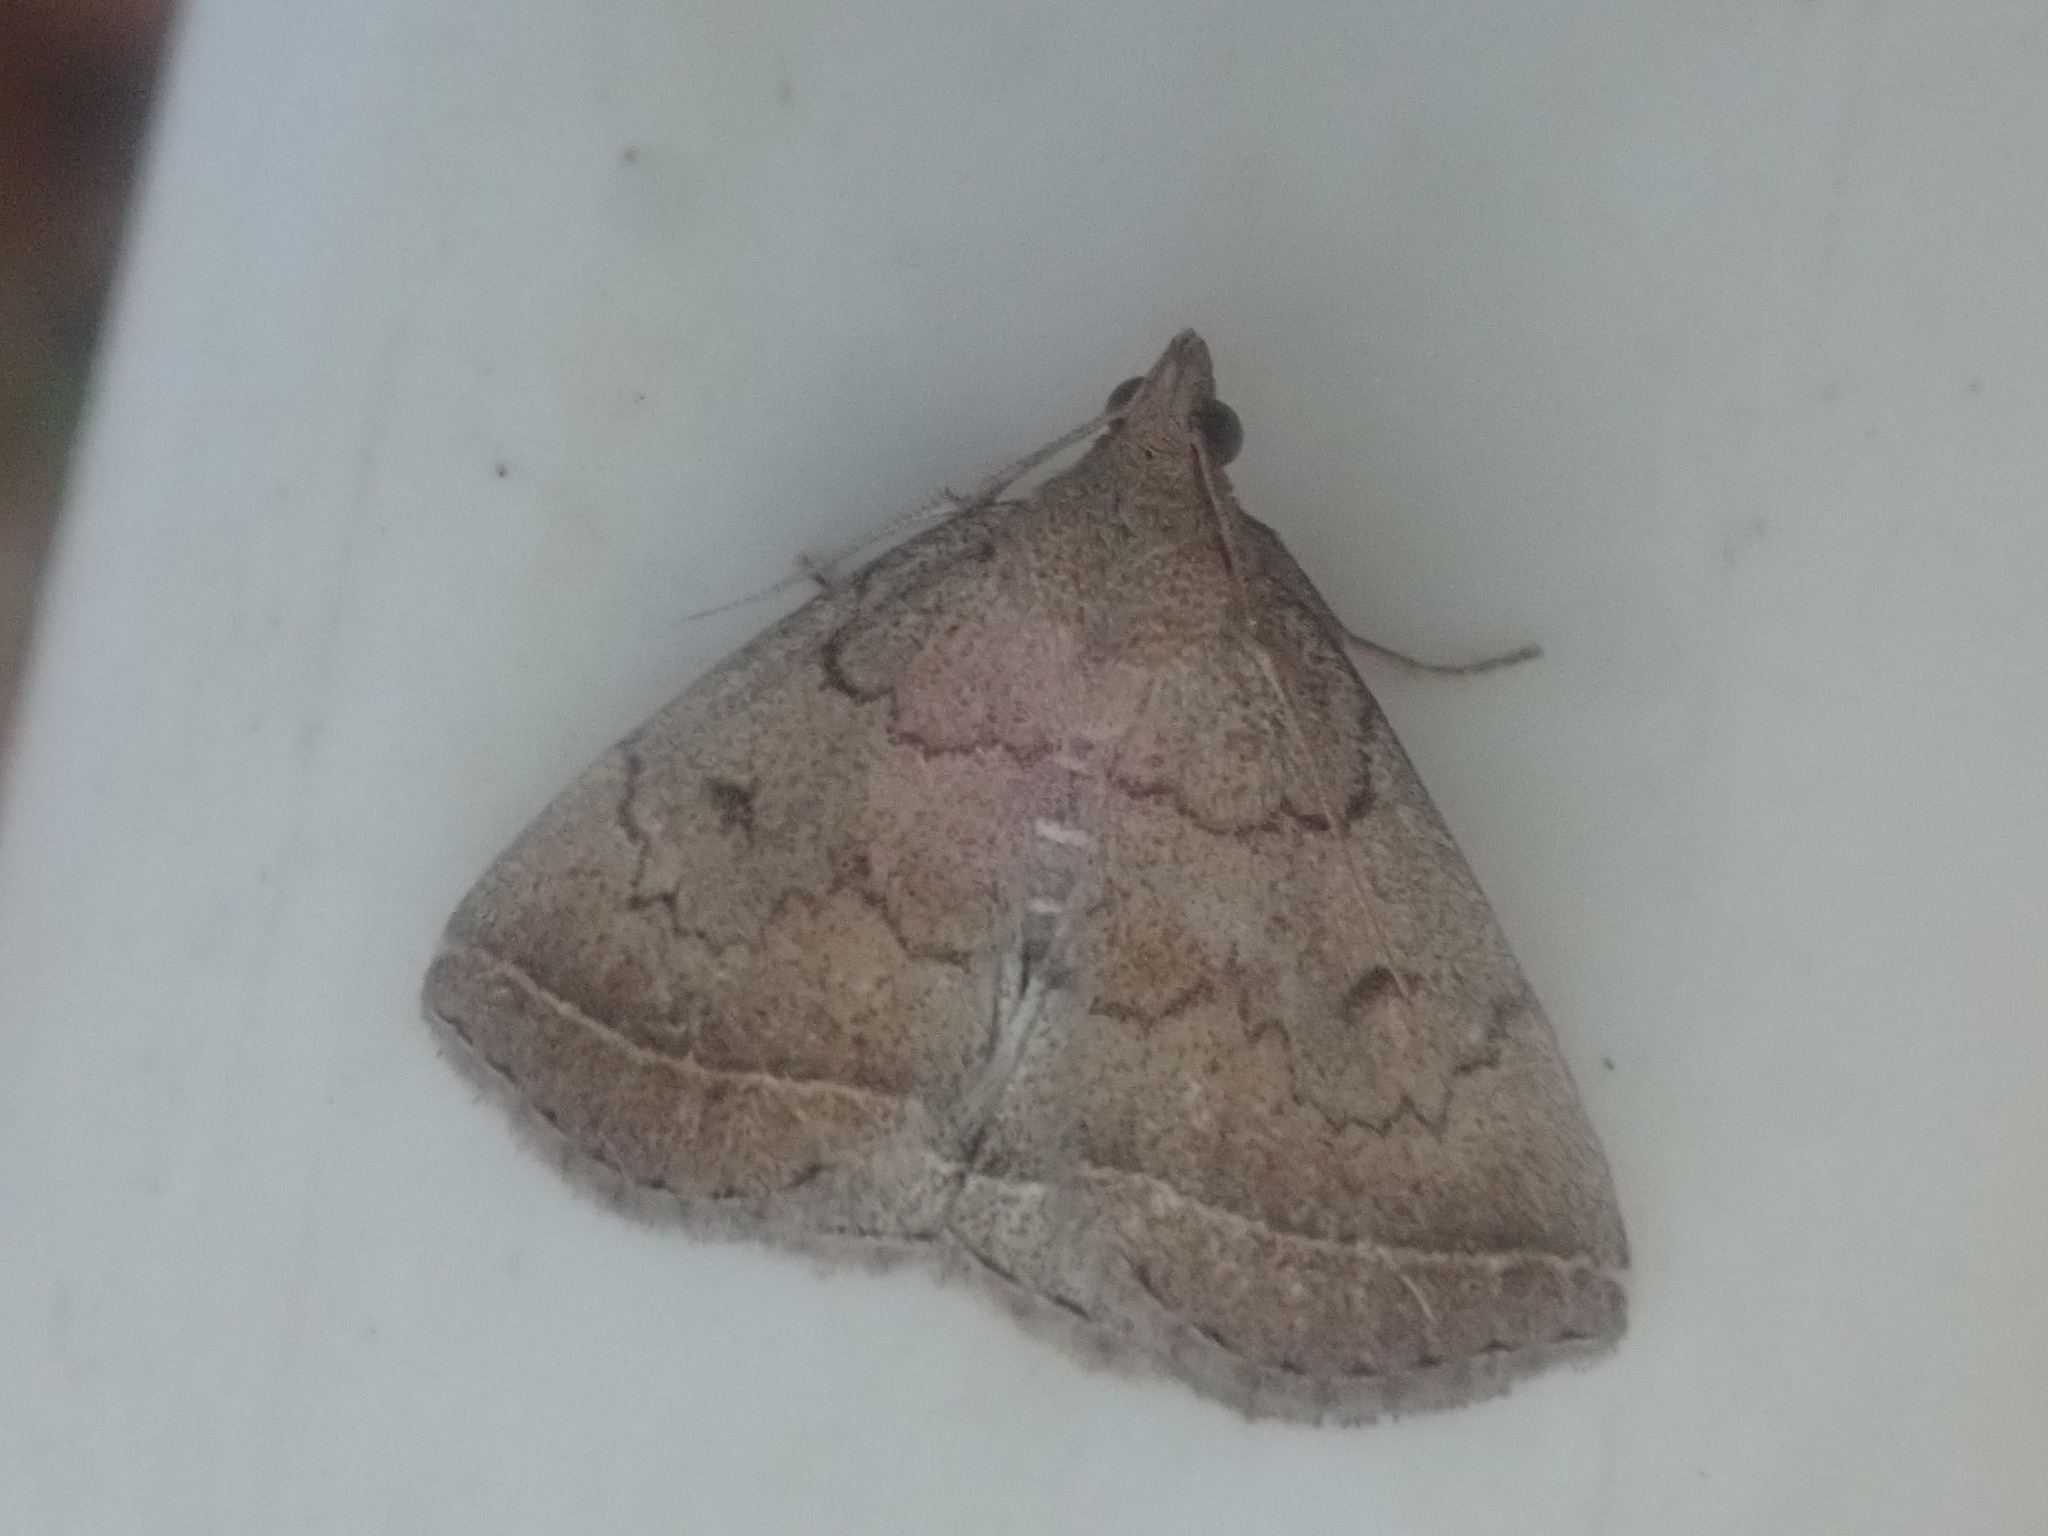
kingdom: Animalia
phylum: Arthropoda
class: Insecta
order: Lepidoptera
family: Erebidae
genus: Zanclognatha
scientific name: Zanclognatha jacchusalis
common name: Yellowish zanclognatha
